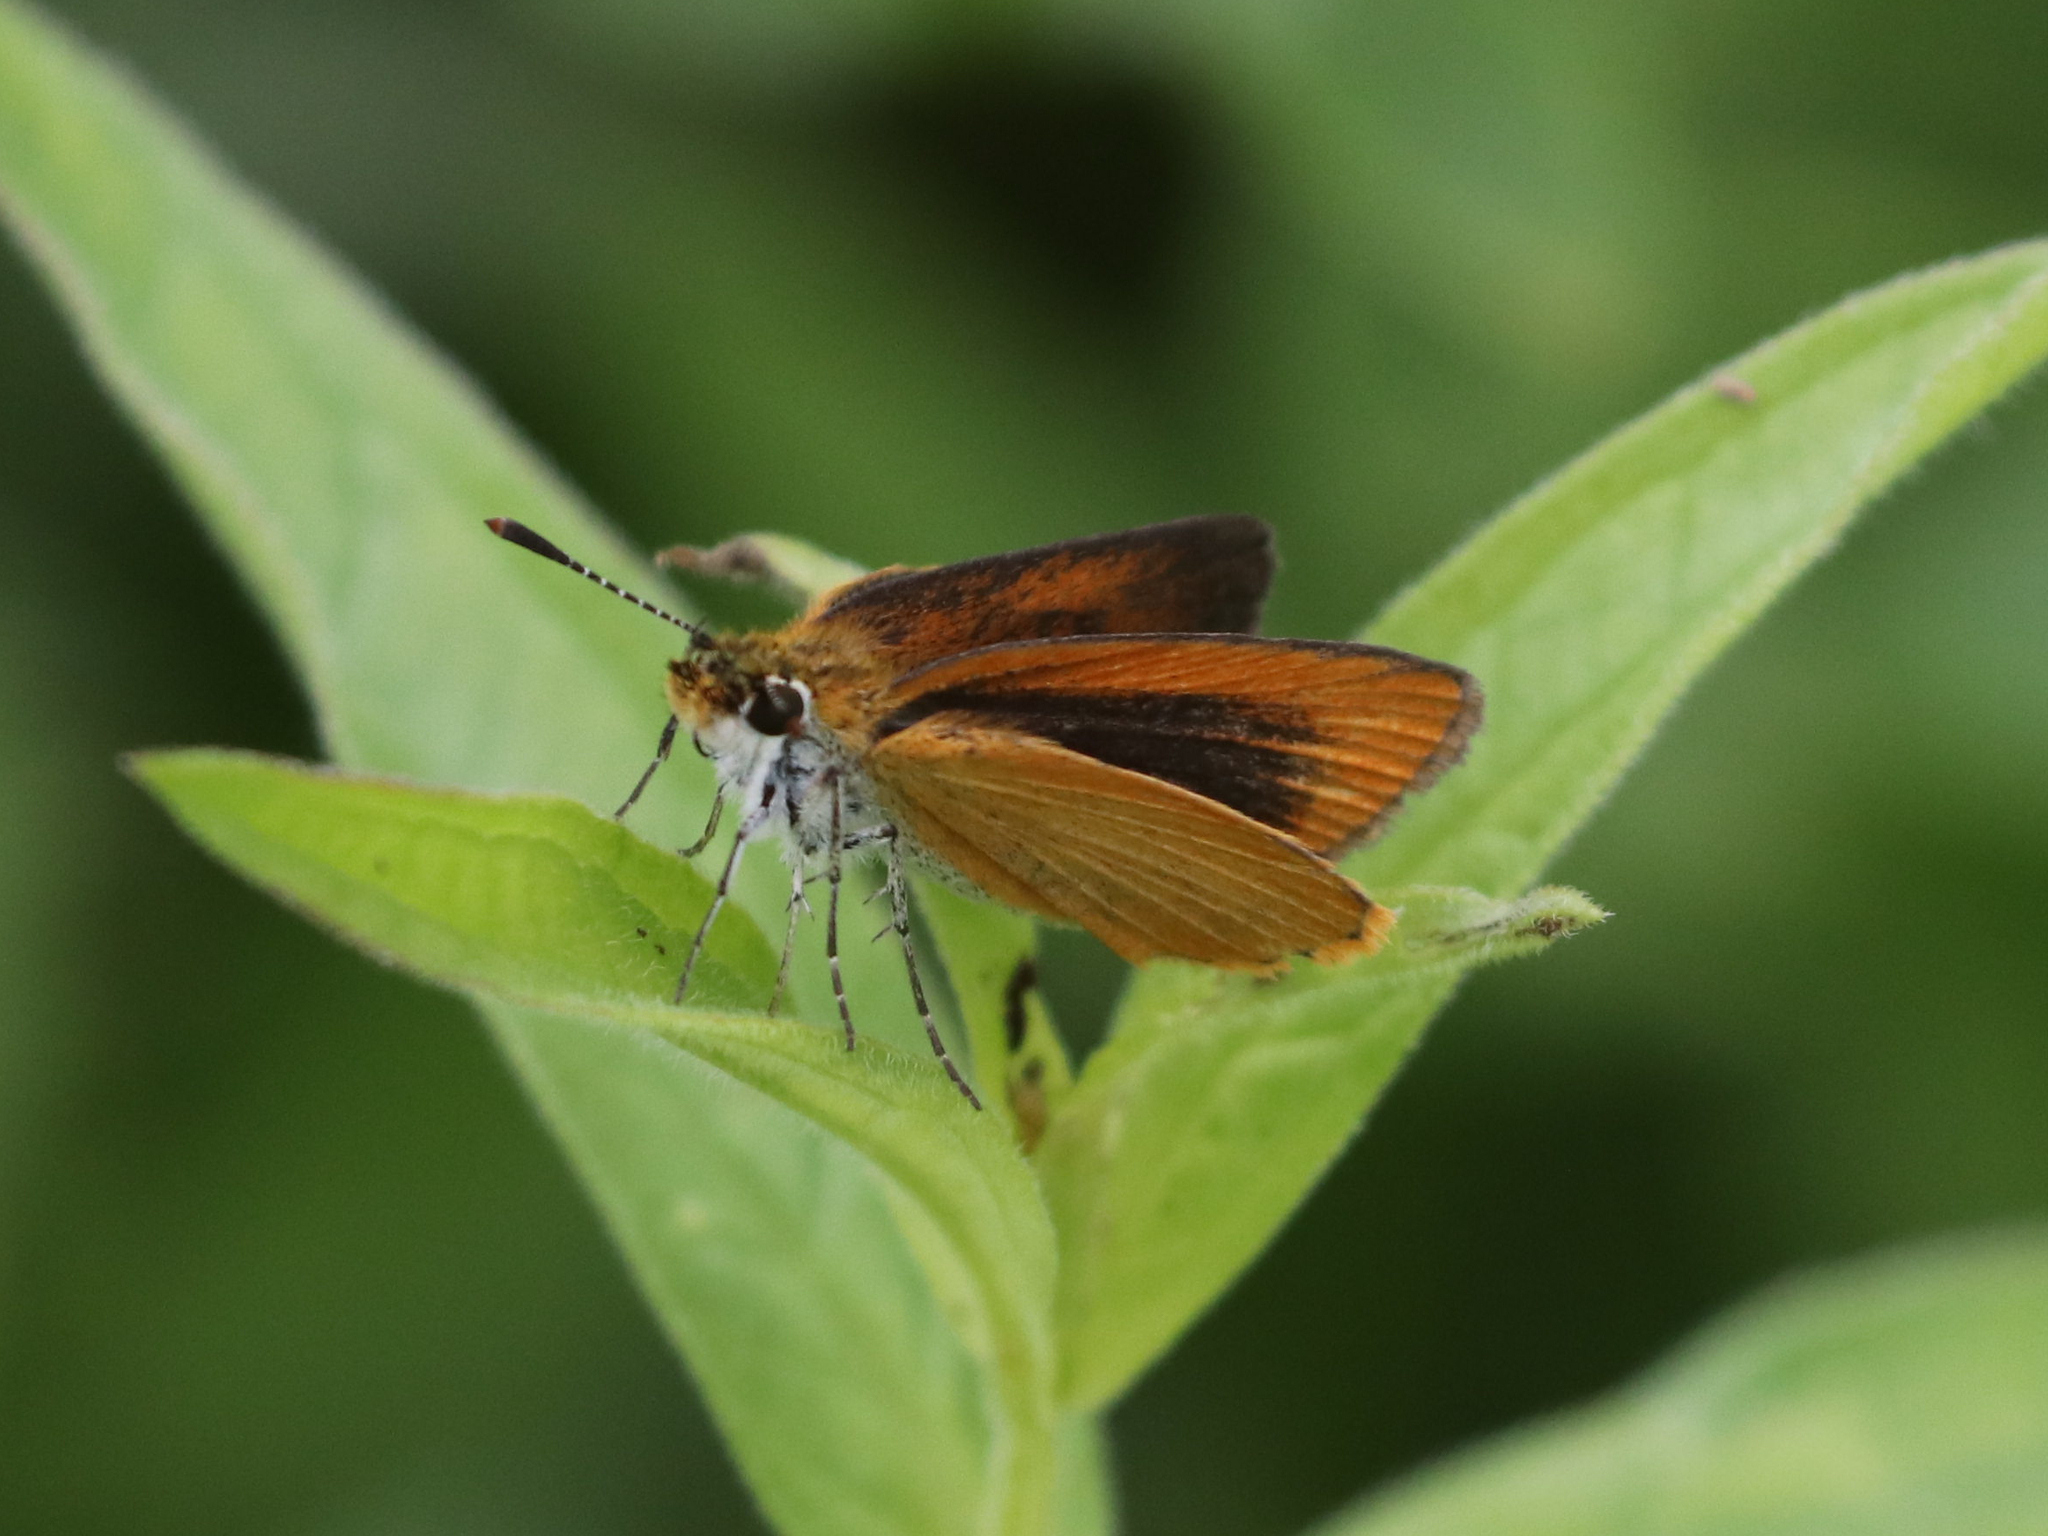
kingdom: Animalia
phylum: Arthropoda
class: Insecta
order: Lepidoptera
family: Hesperiidae
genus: Ancyloxypha
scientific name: Ancyloxypha numitor
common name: Least skipper
